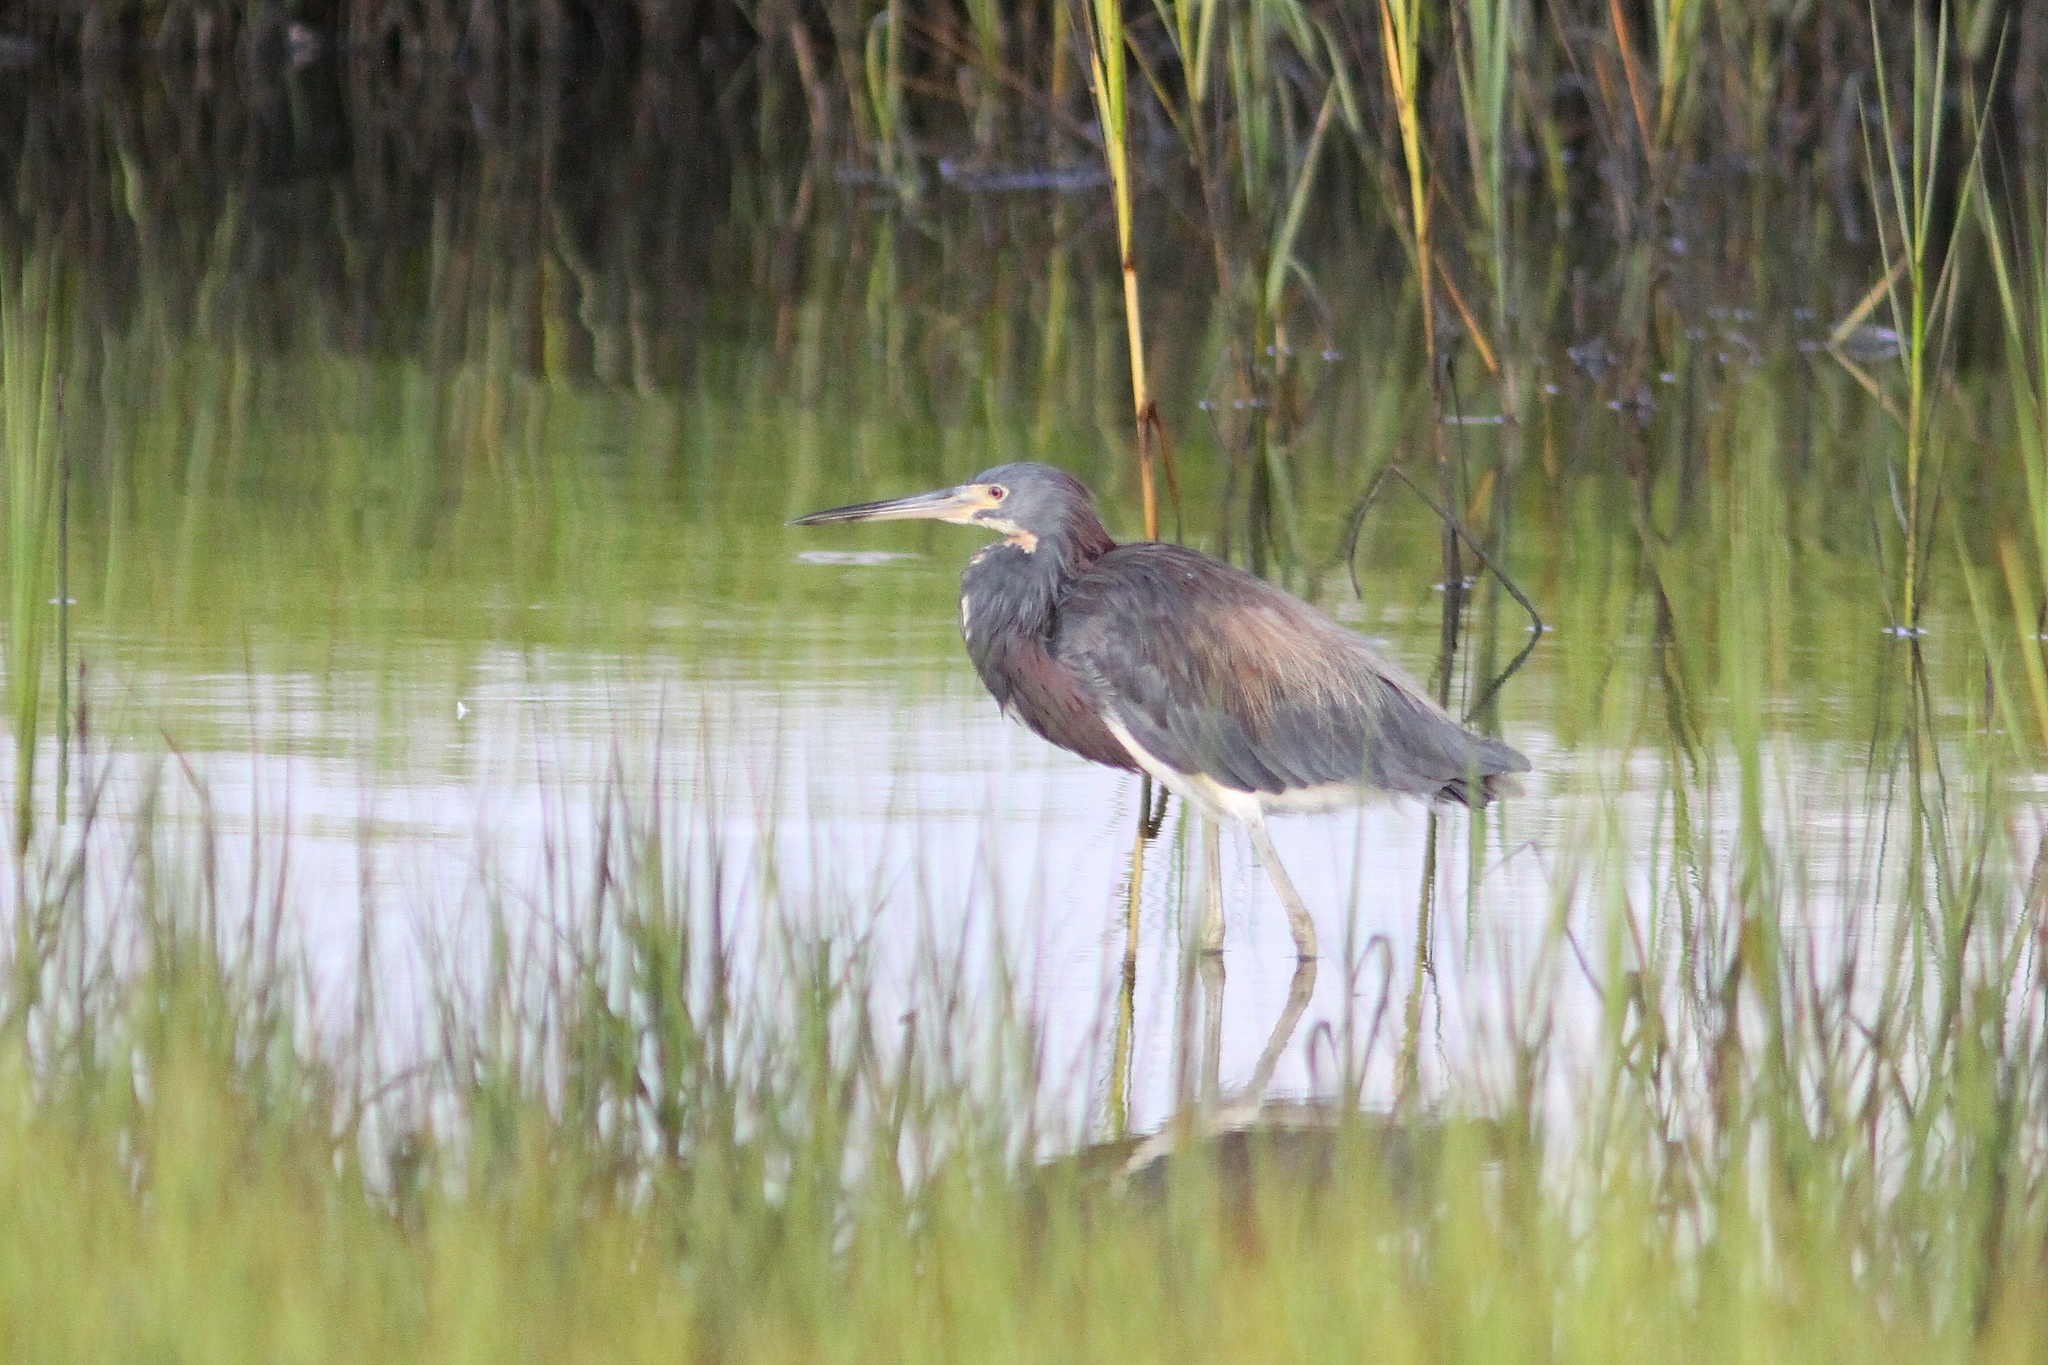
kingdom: Animalia
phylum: Chordata
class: Aves
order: Pelecaniformes
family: Ardeidae
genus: Egretta
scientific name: Egretta tricolor
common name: Tricolored heron
